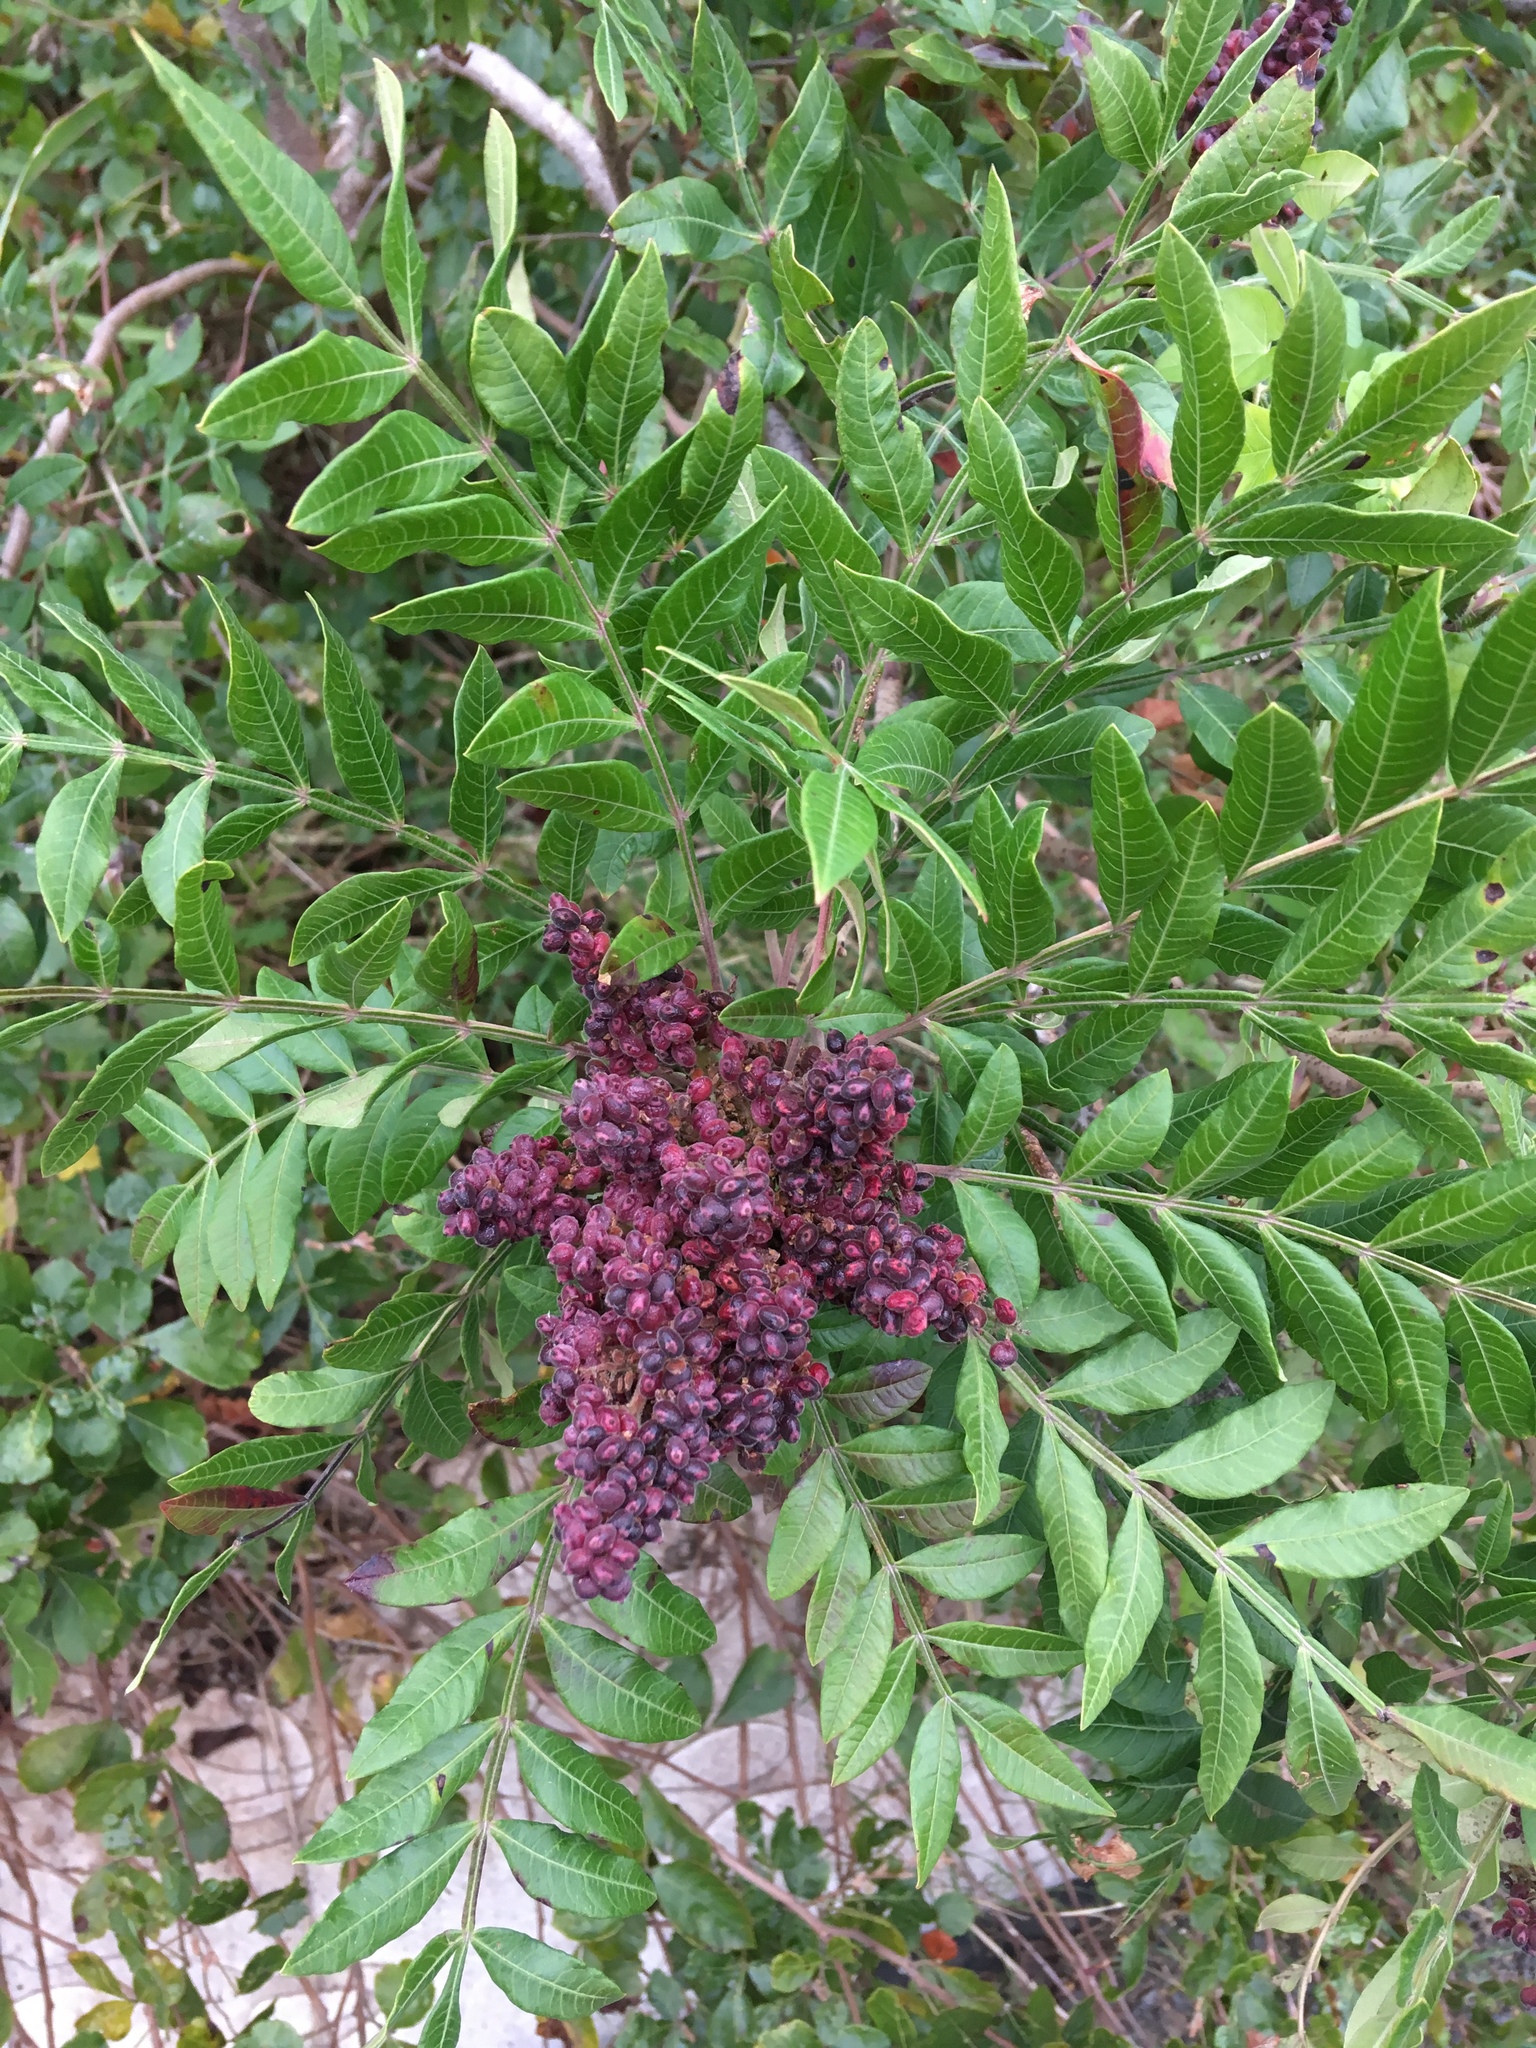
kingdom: Plantae
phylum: Tracheophyta
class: Magnoliopsida
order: Sapindales
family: Anacardiaceae
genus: Rhus
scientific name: Rhus copallina
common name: Shining sumac
